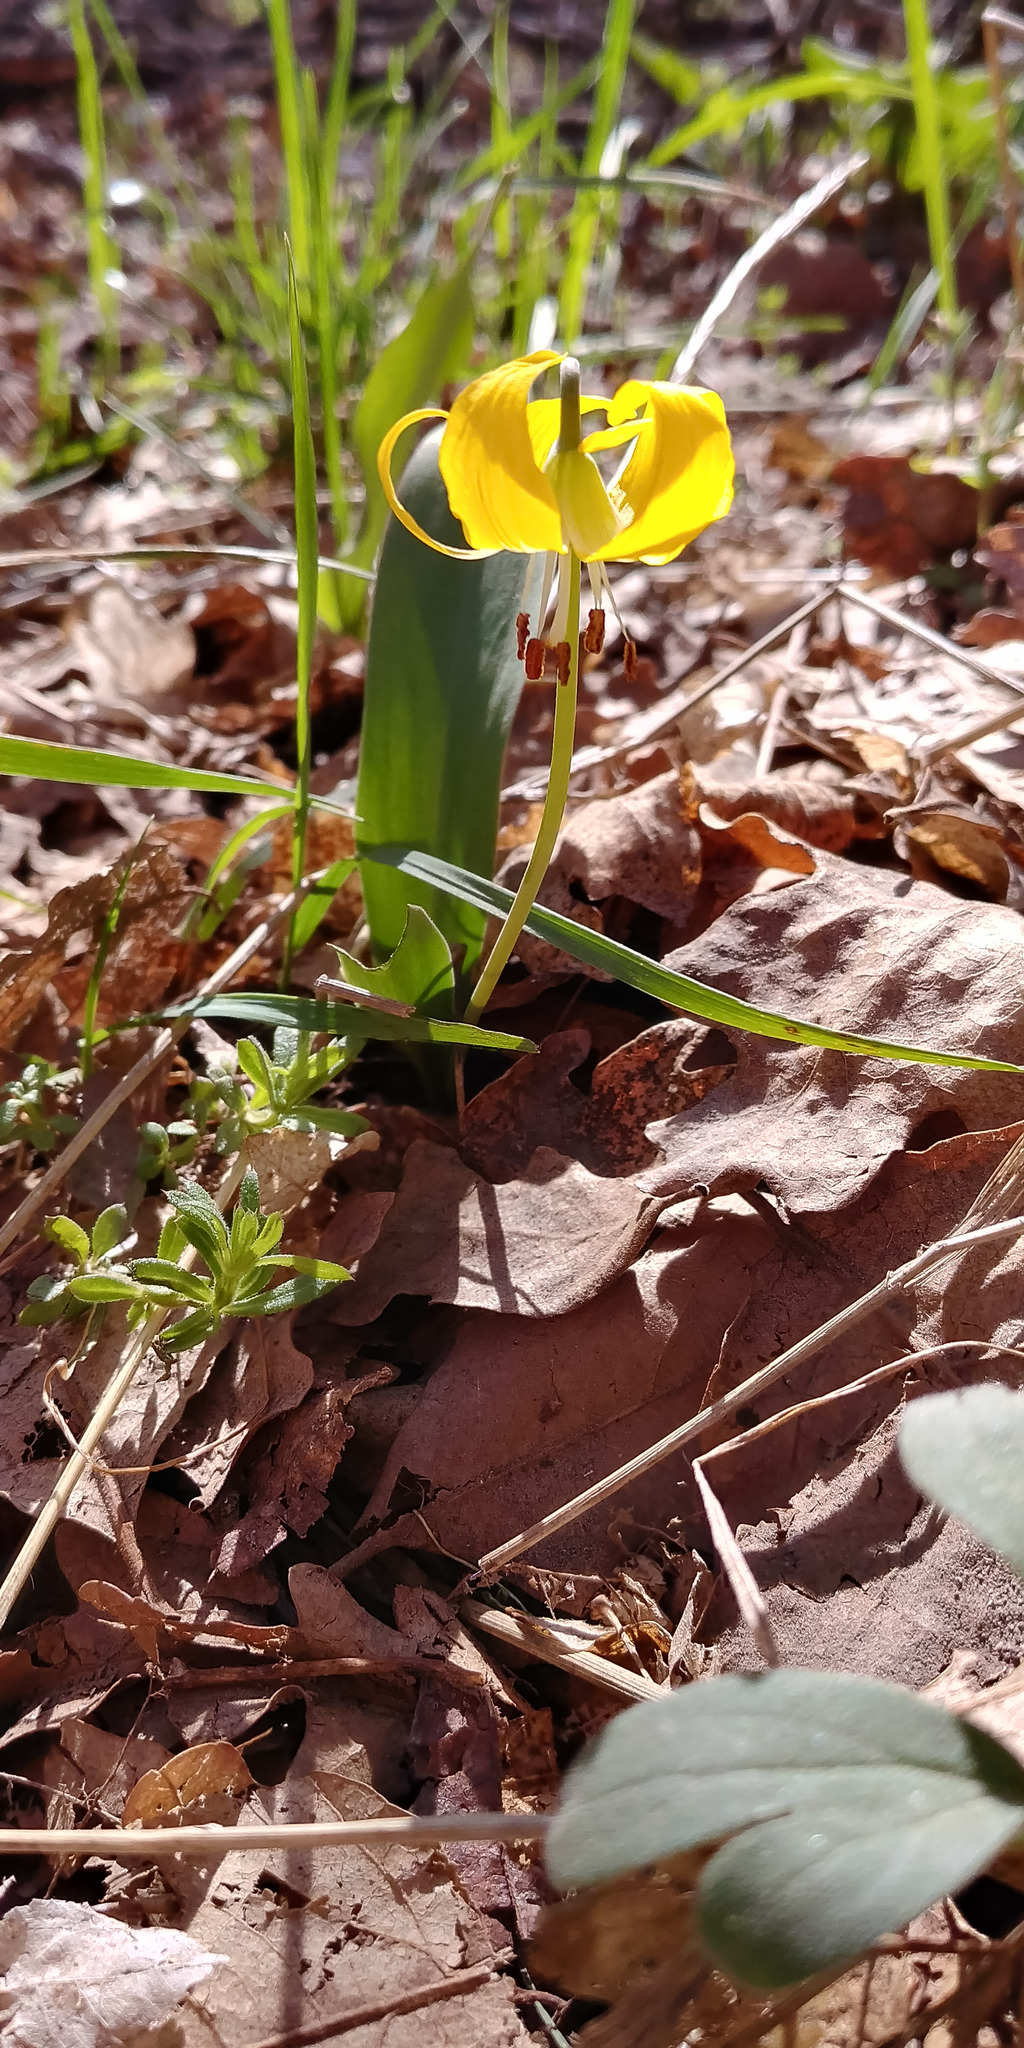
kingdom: Plantae
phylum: Tracheophyta
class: Liliopsida
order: Liliales
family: Liliaceae
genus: Erythronium
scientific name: Erythronium grandiflorum
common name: Avalanche-lily
